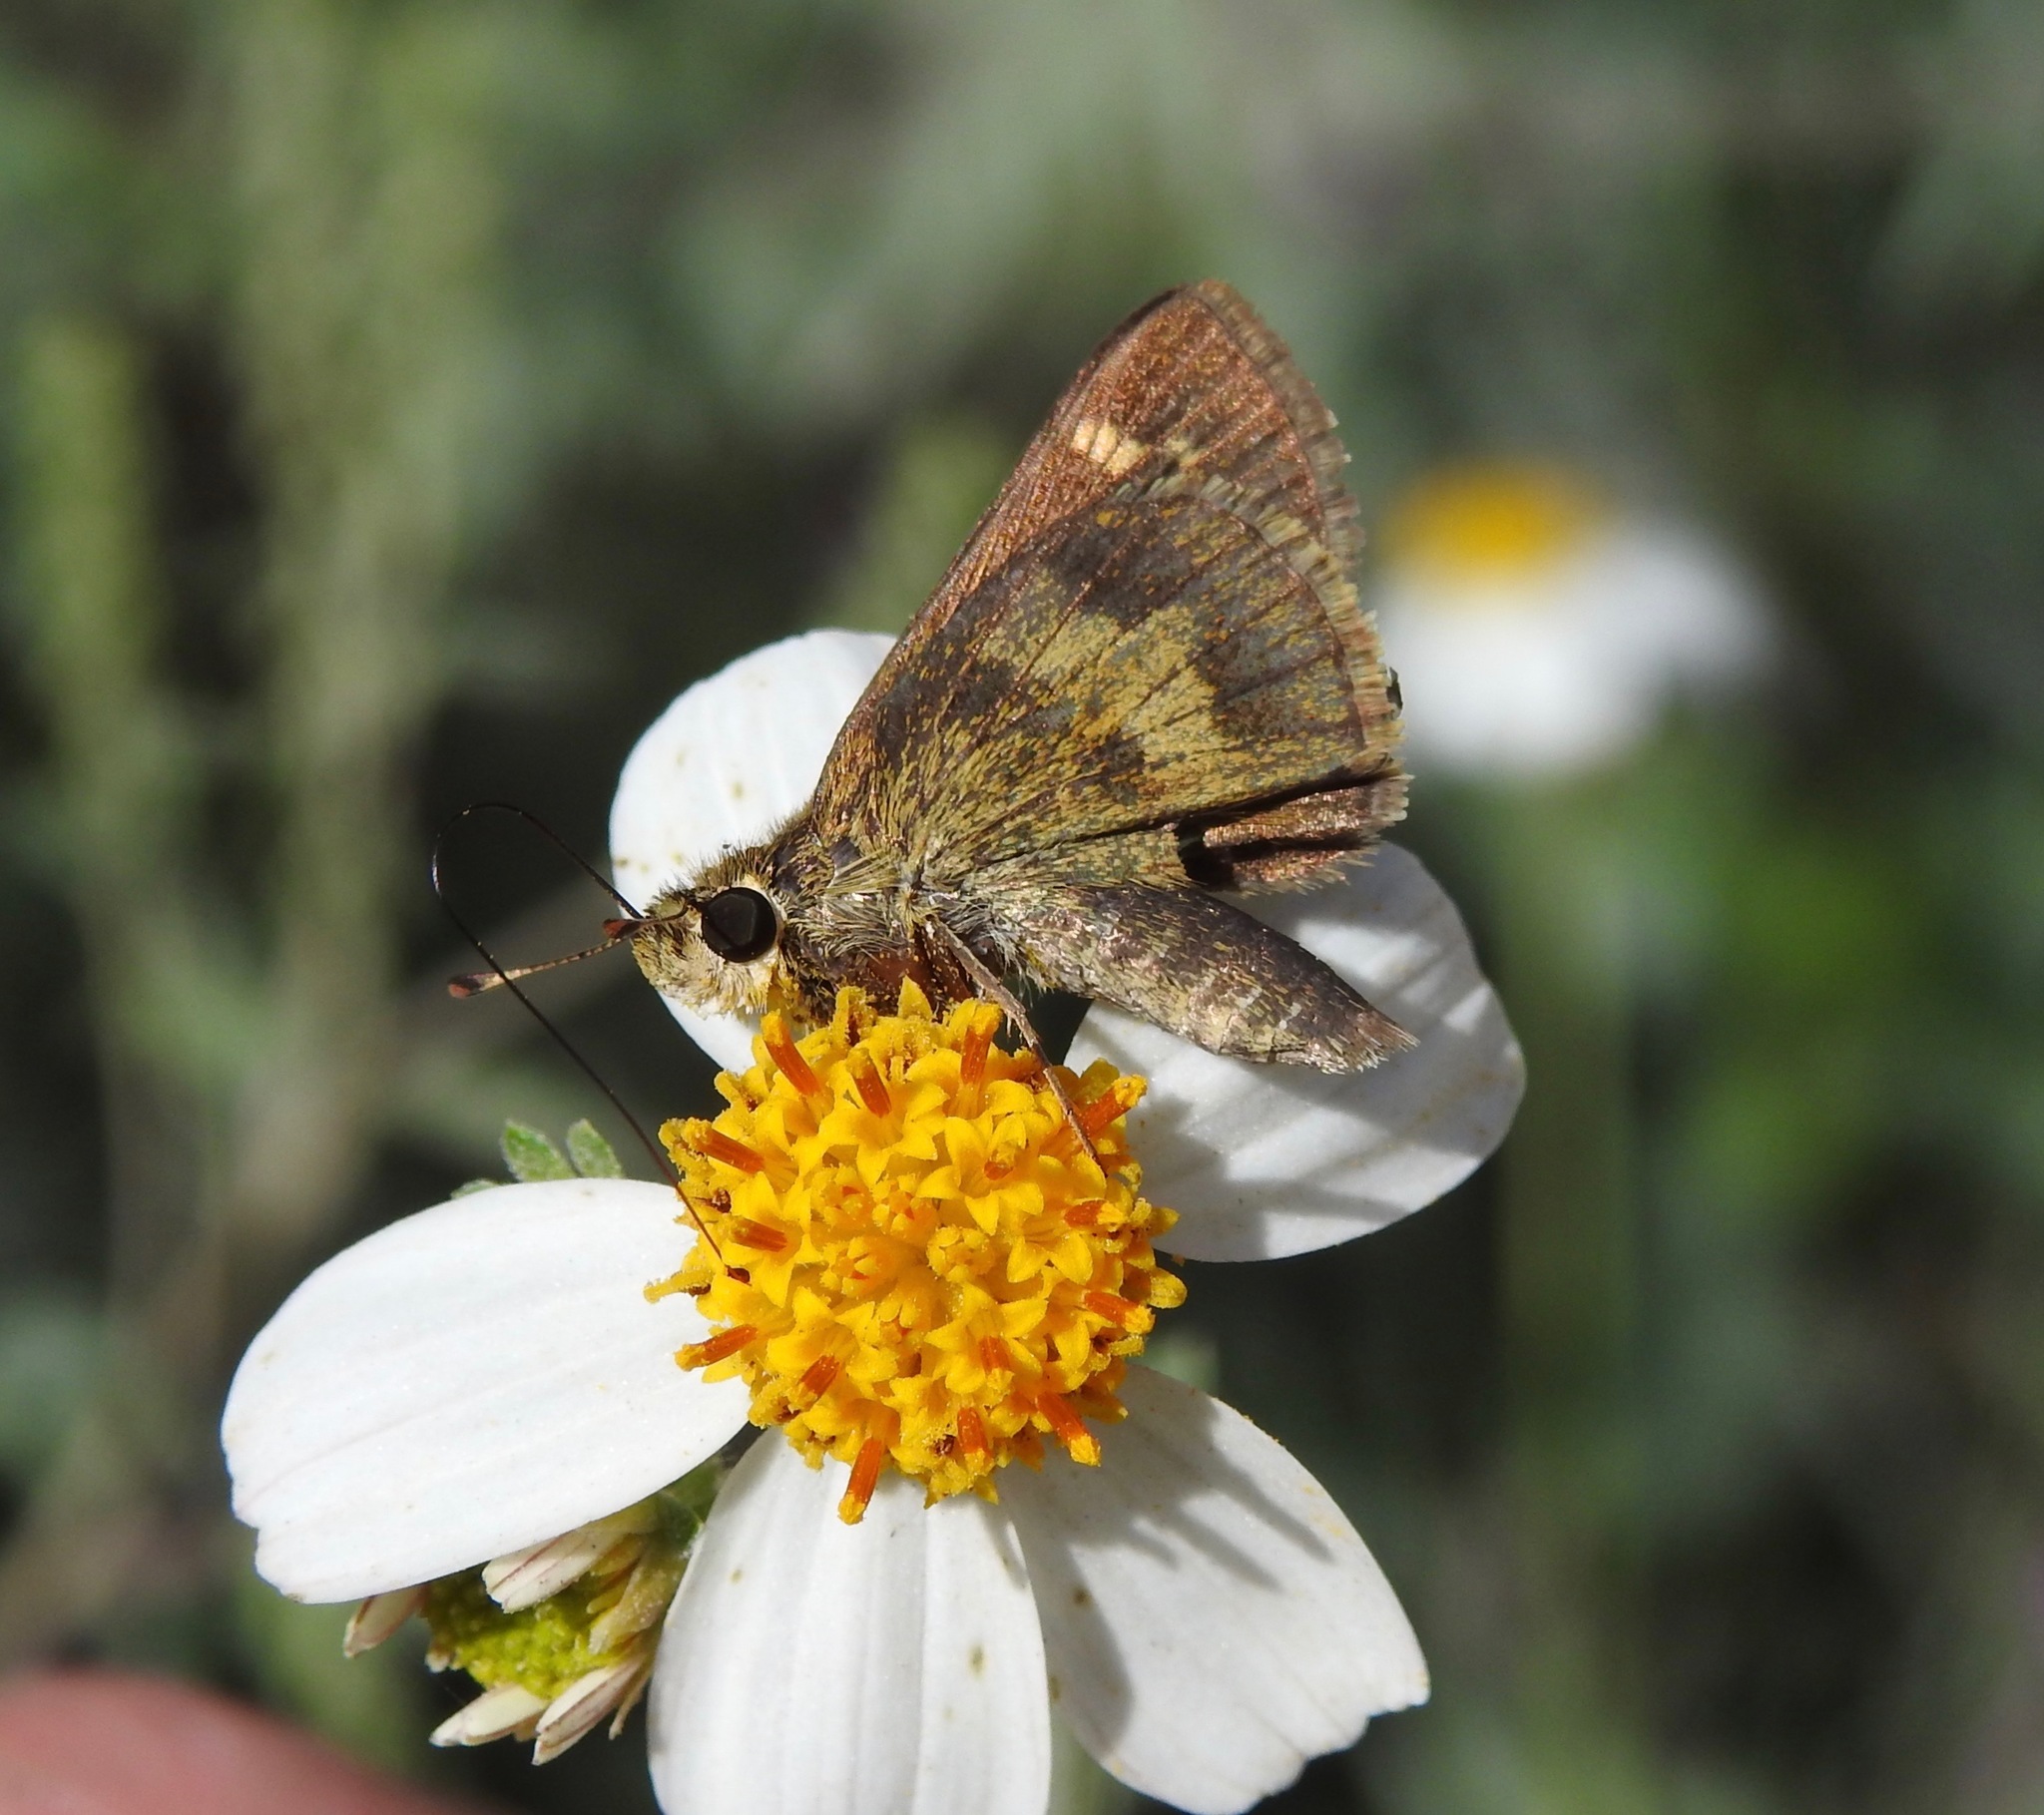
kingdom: Animalia
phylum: Arthropoda
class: Insecta
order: Lepidoptera
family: Hesperiidae
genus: Polites
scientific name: Polites vibex
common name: Whirlabout
